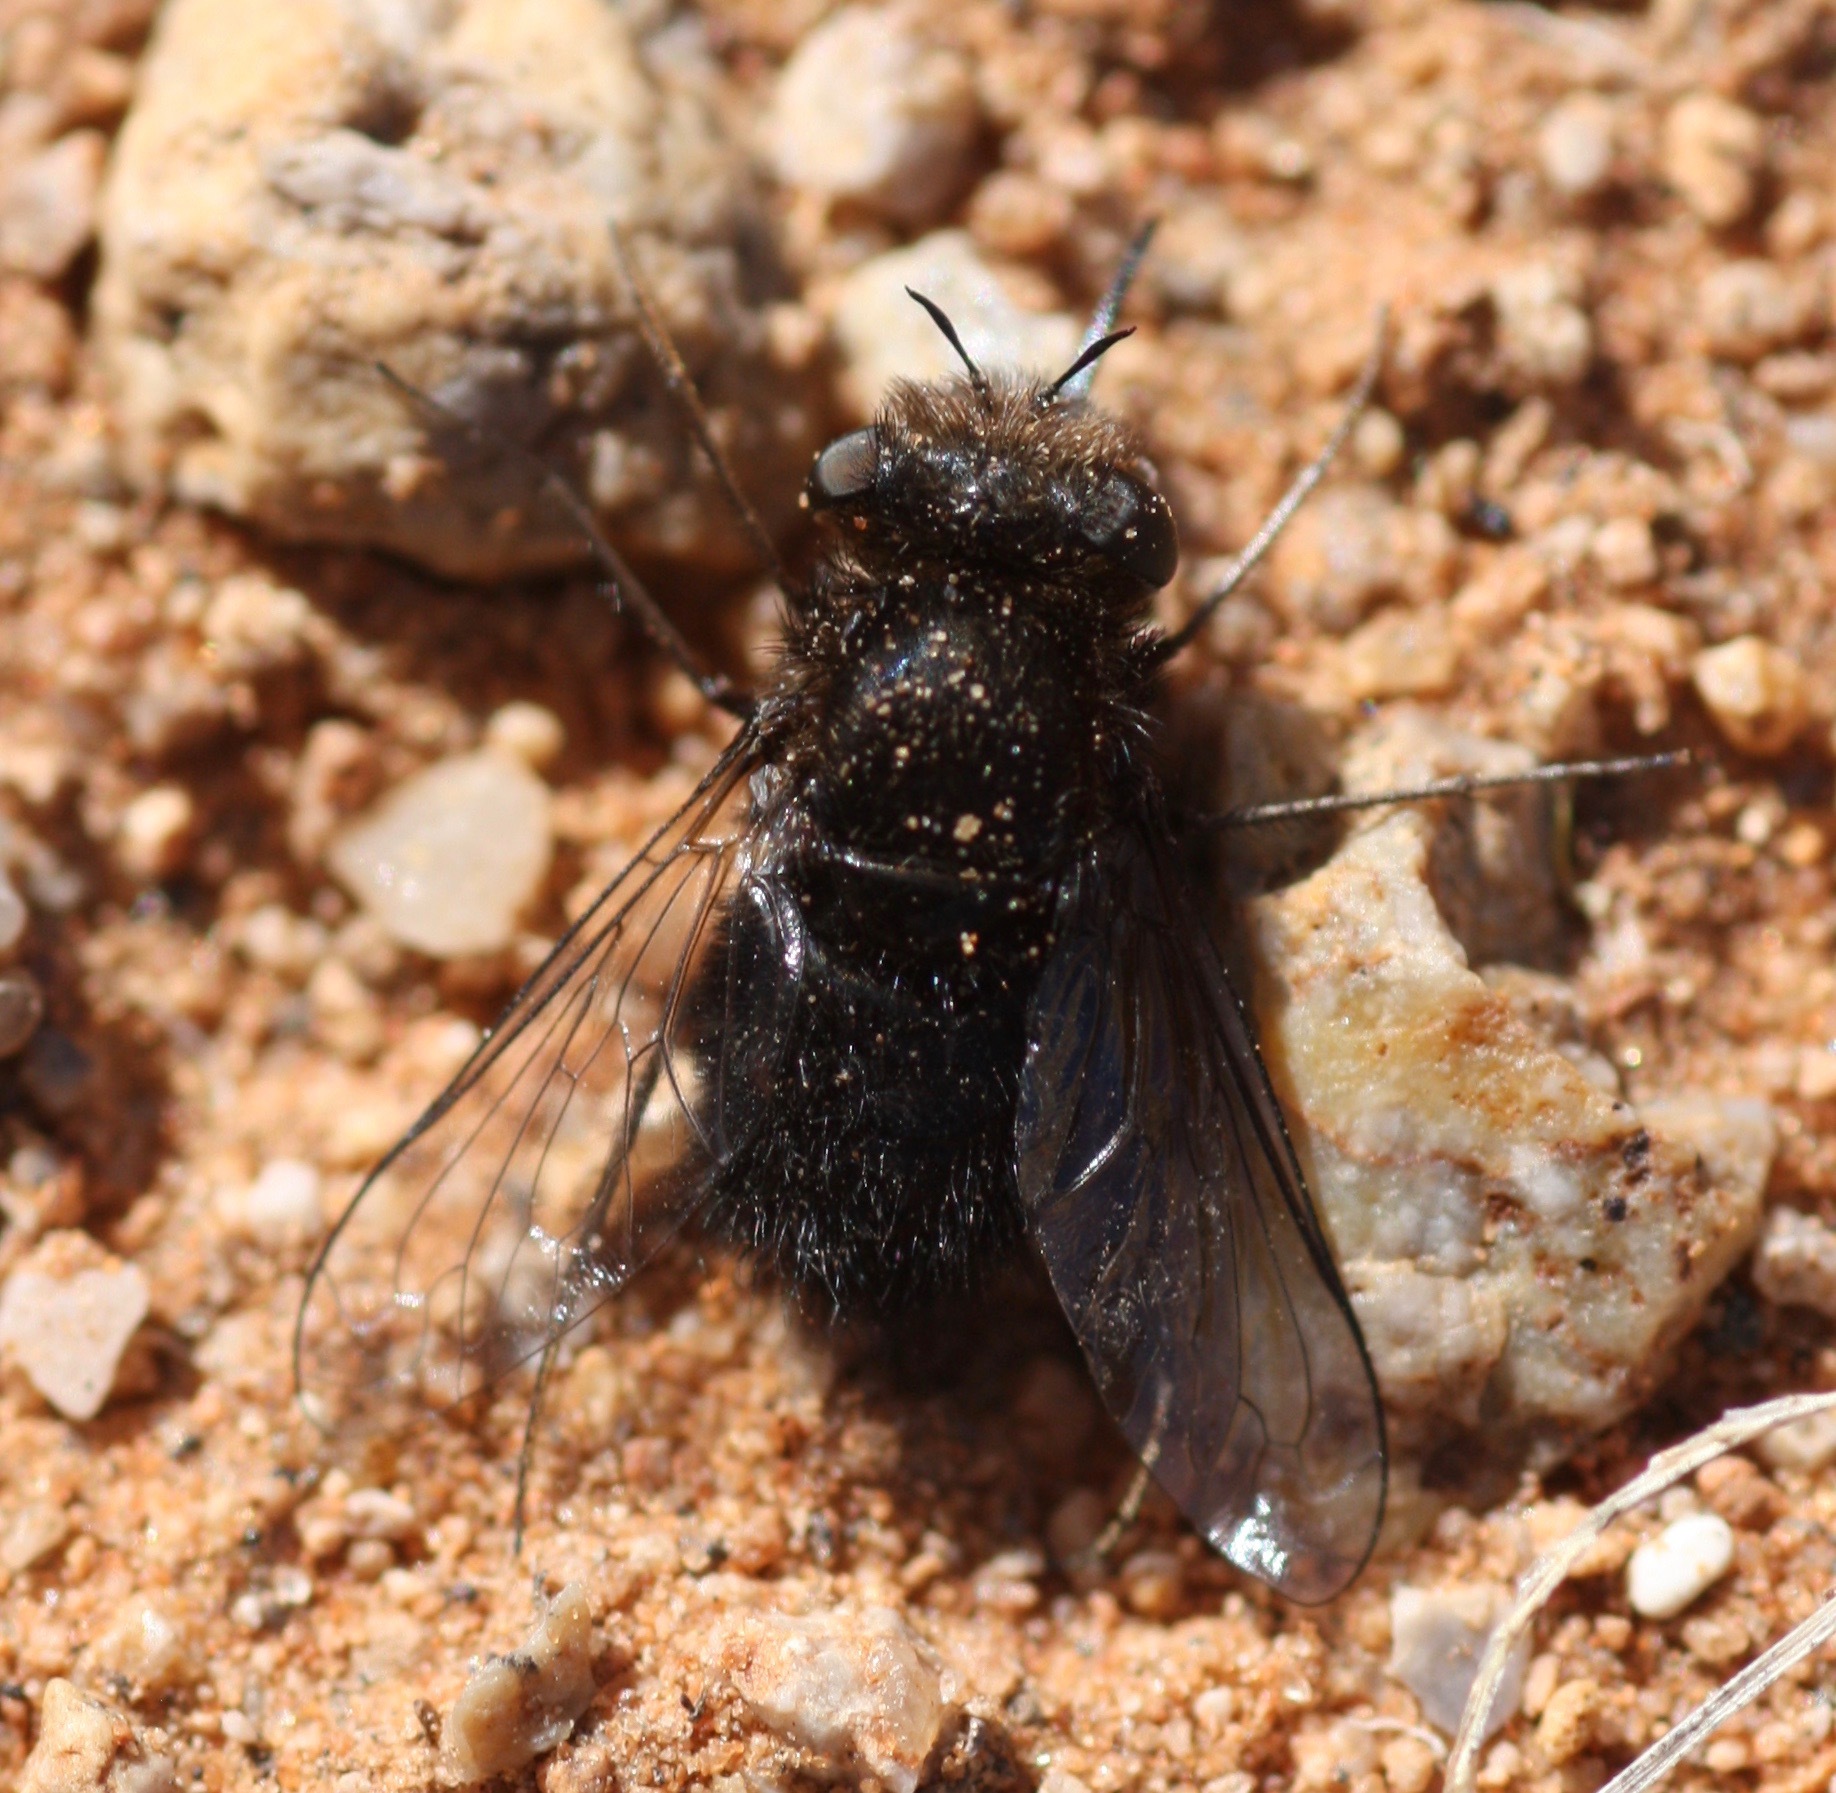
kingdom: Animalia
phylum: Arthropoda
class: Insecta
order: Diptera
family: Bombyliidae
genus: Pantarbes
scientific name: Pantarbes willistoni
